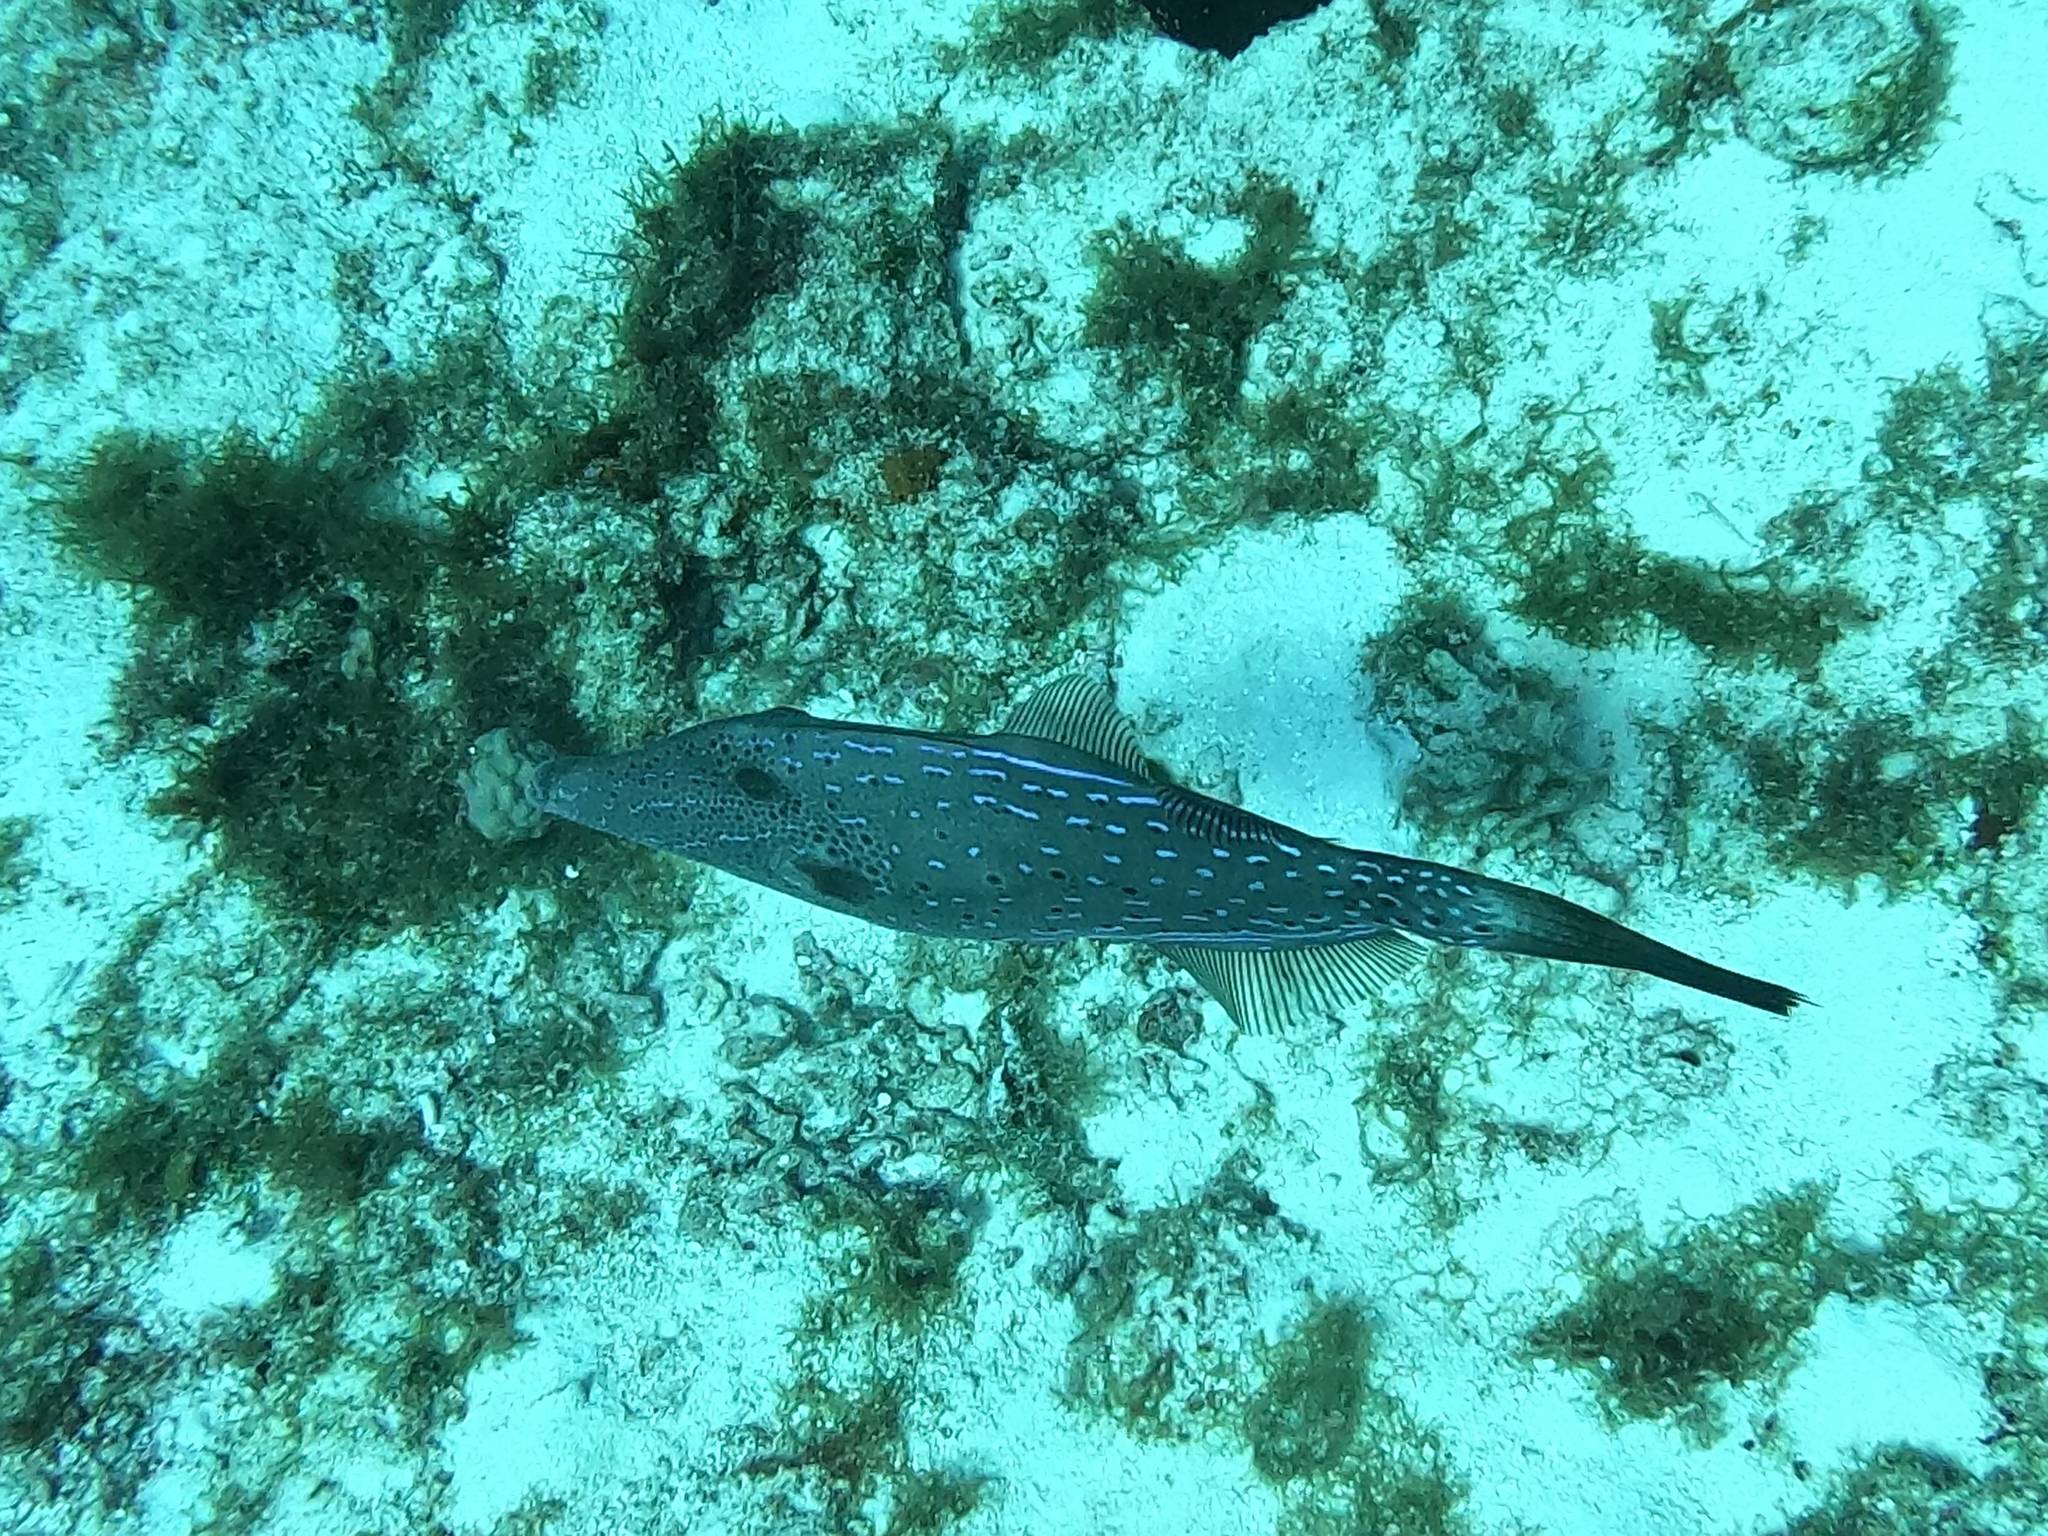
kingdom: Animalia
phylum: Chordata
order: Tetraodontiformes
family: Monacanthidae
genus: Aluterus
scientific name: Aluterus scriptus
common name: Scribbled leatherjacket filefish
